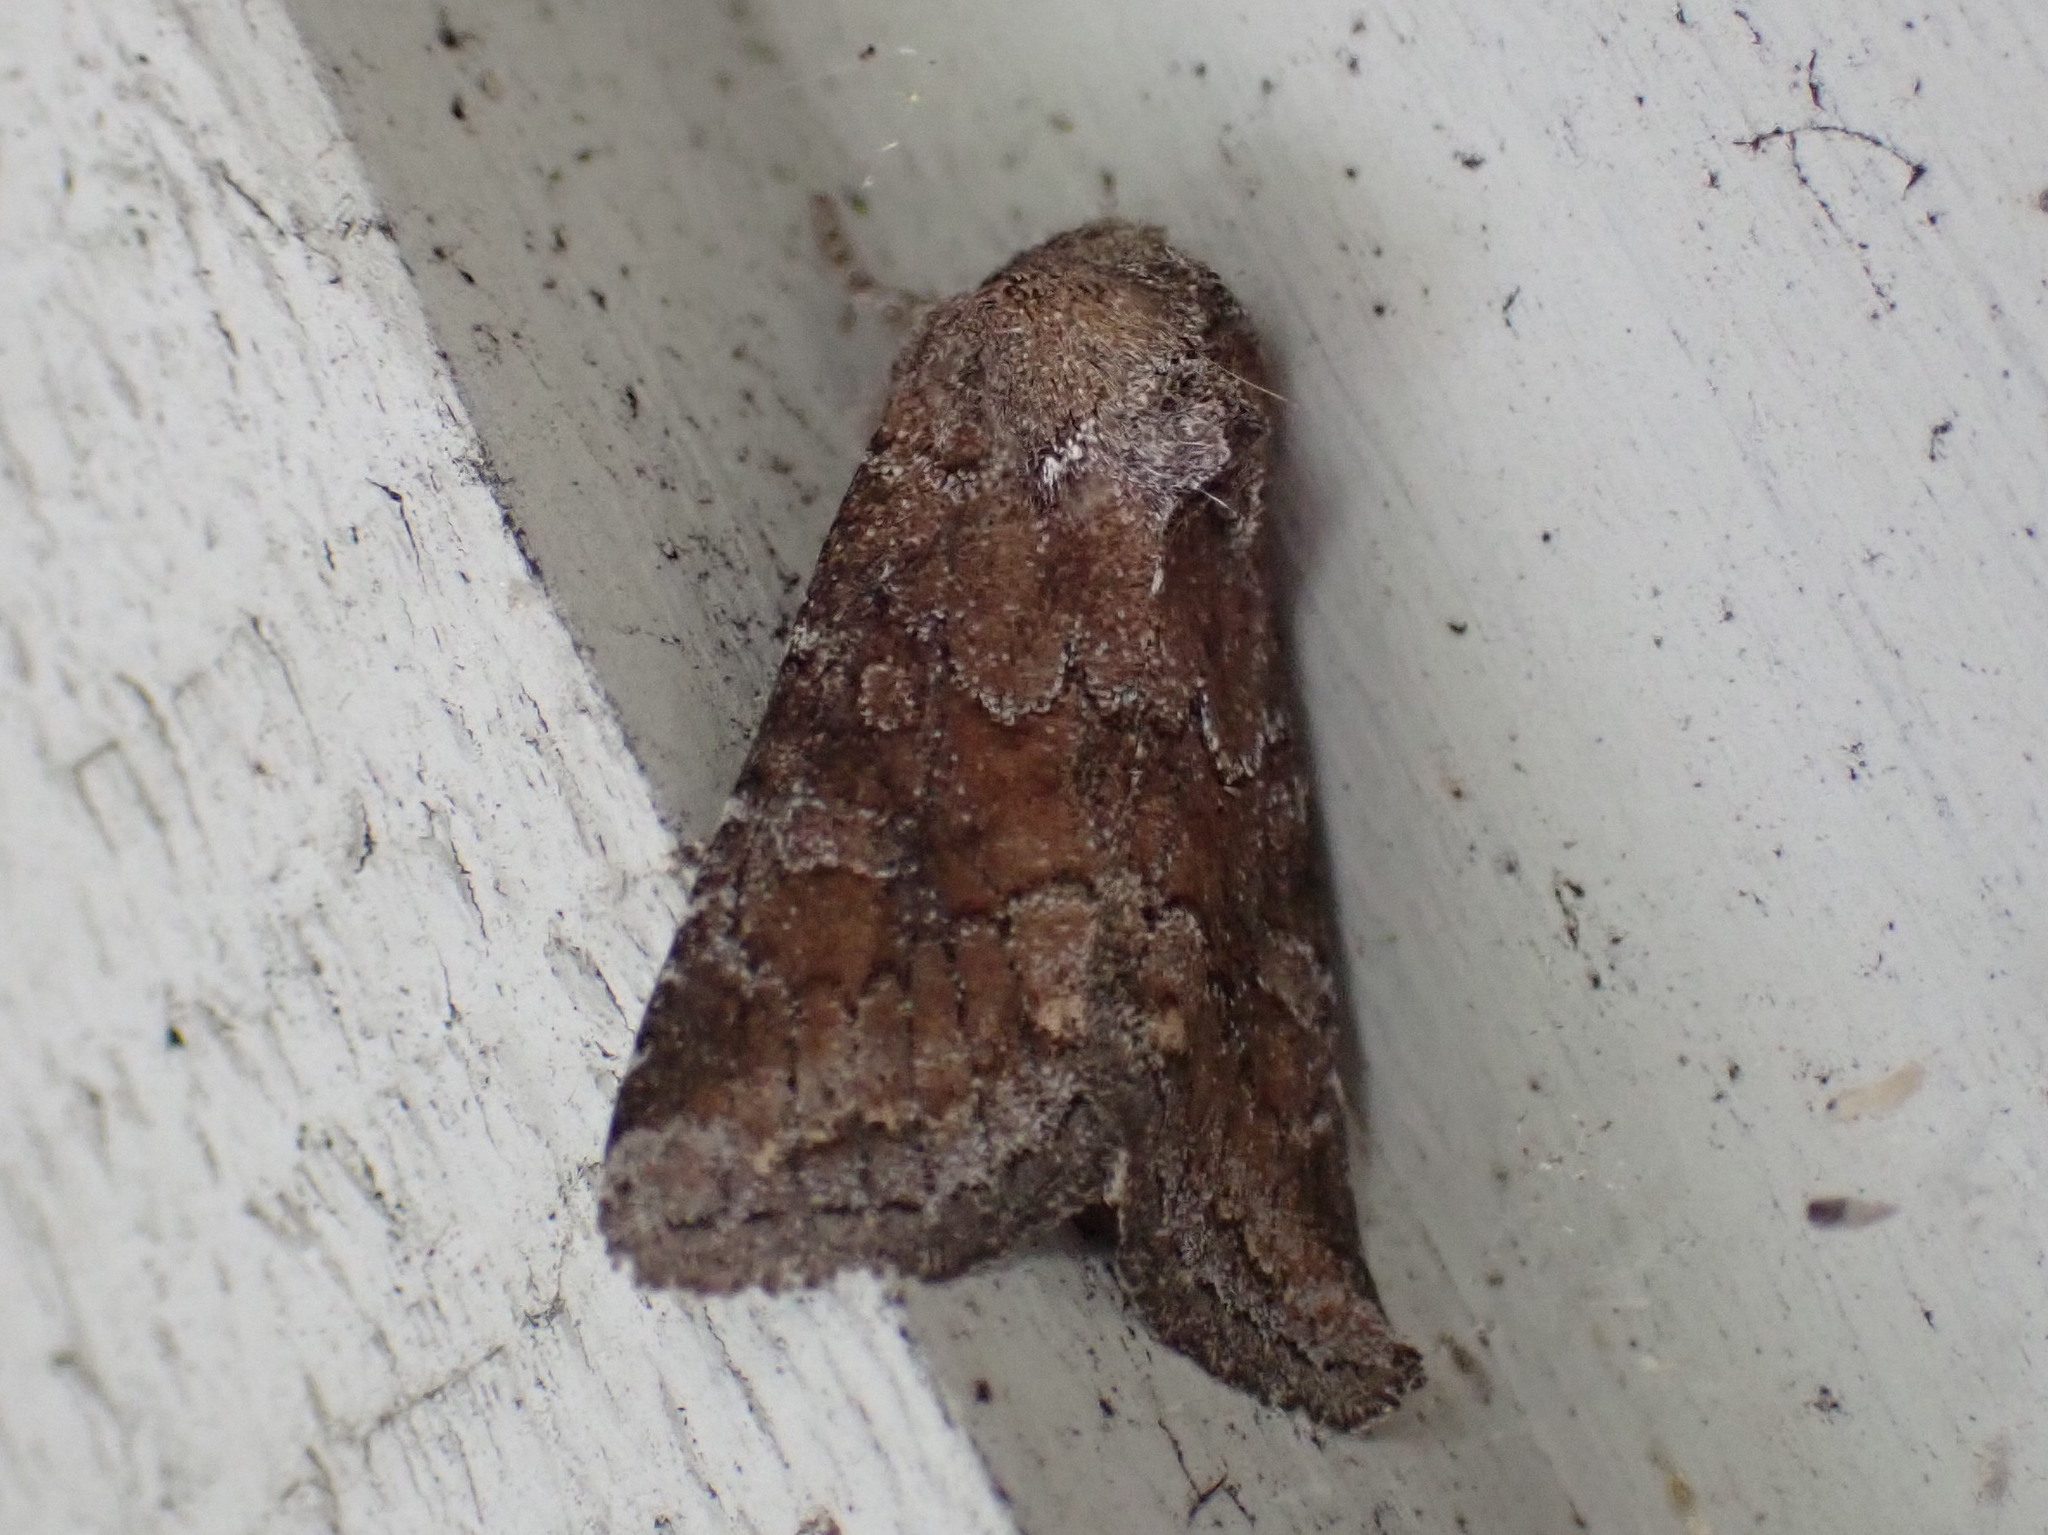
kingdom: Animalia
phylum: Arthropoda
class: Insecta
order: Lepidoptera
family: Noctuidae
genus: Lacinipolia
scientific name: Lacinipolia meditata
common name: Thinker moth
